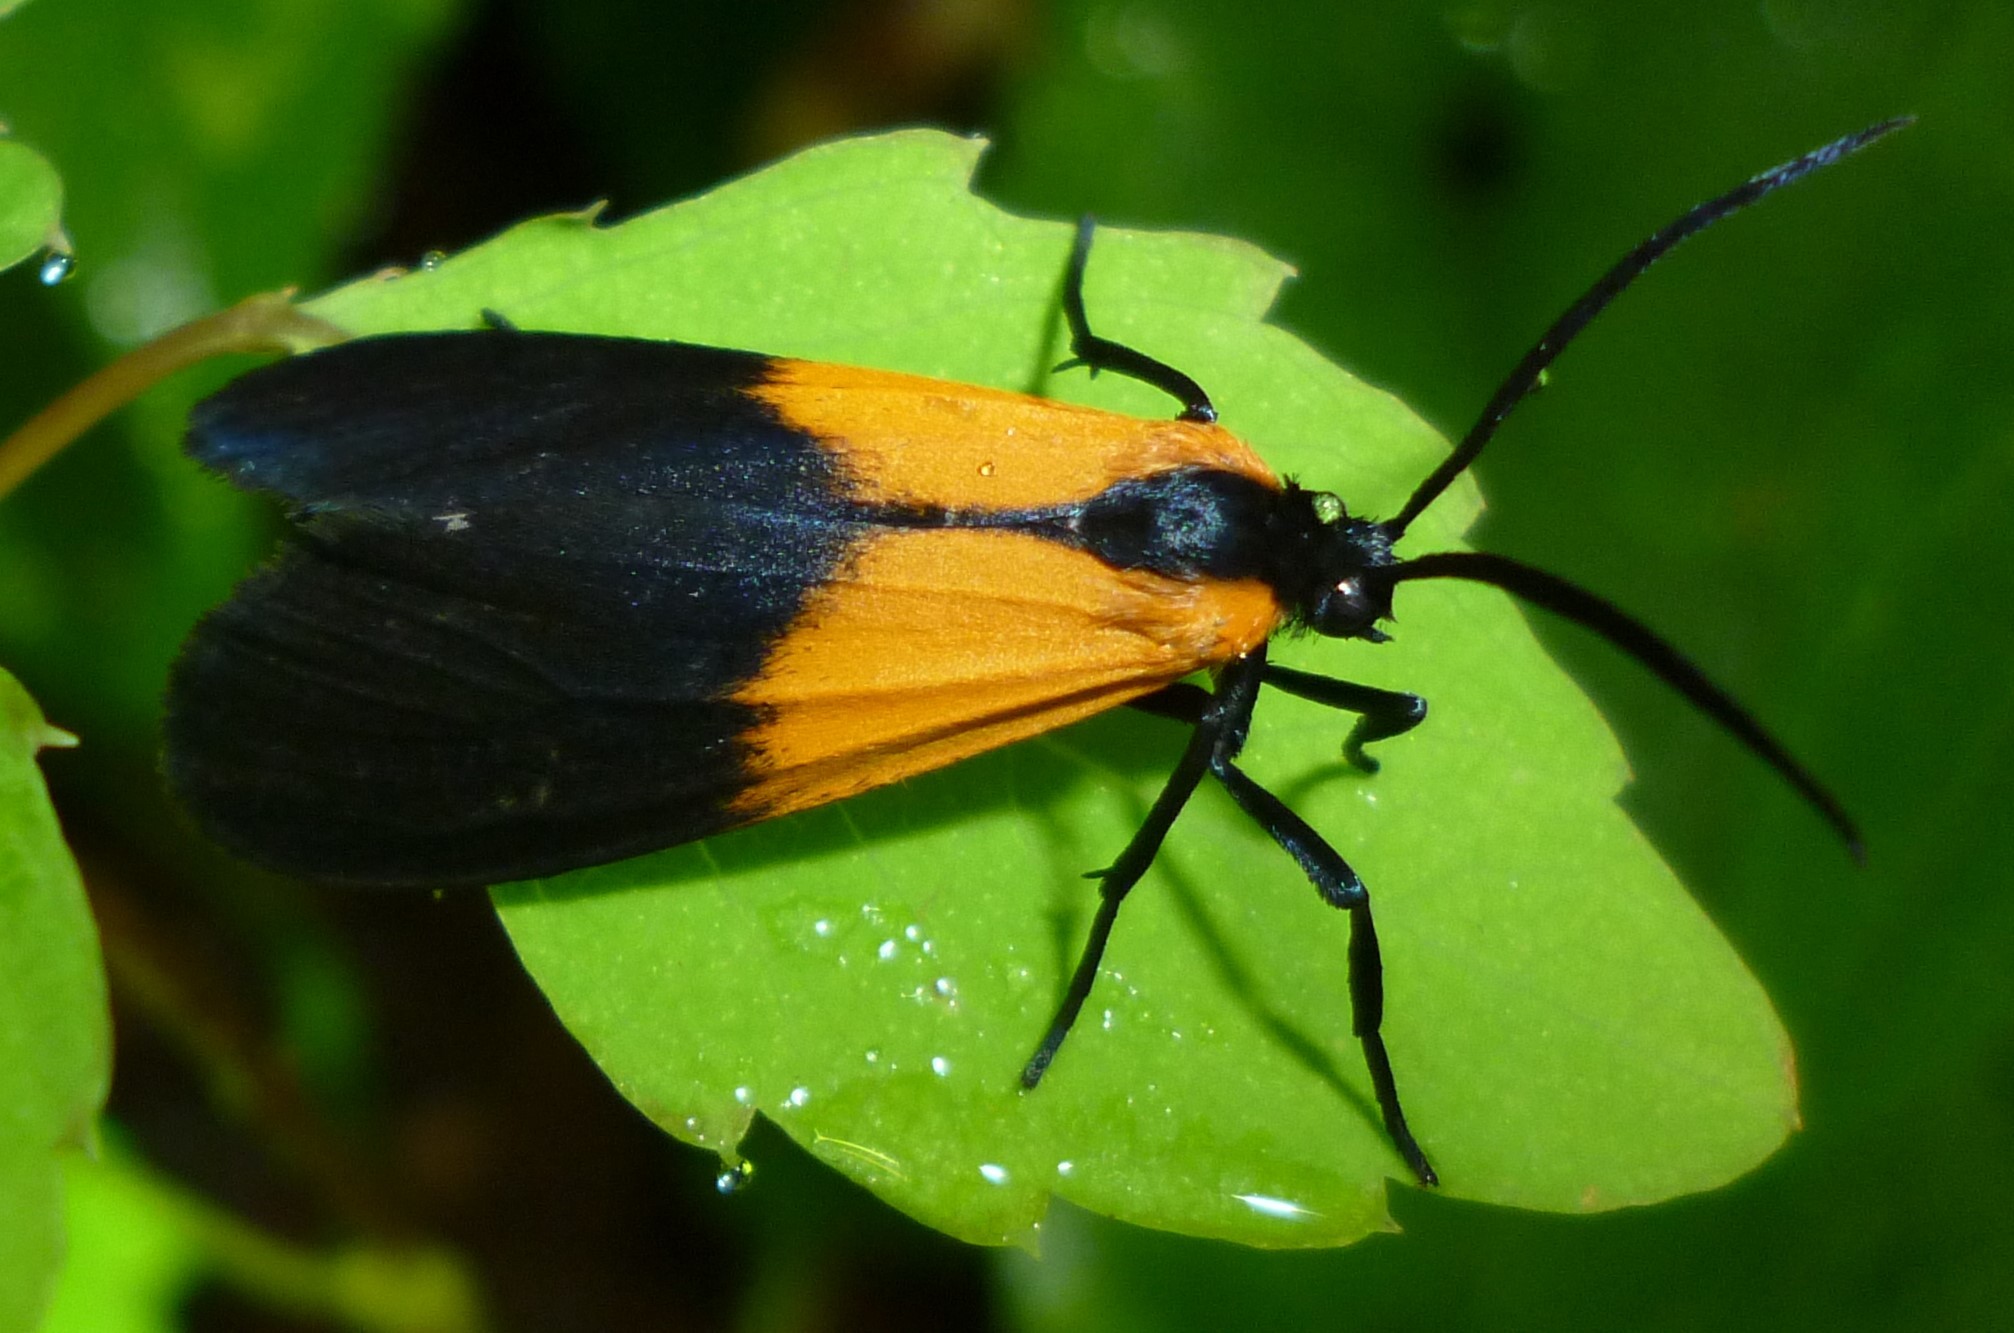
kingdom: Animalia
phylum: Arthropoda
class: Insecta
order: Lepidoptera
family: Erebidae
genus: Lycomorpha
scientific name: Lycomorpha pholus
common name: Black-and-yellow lichen moth
